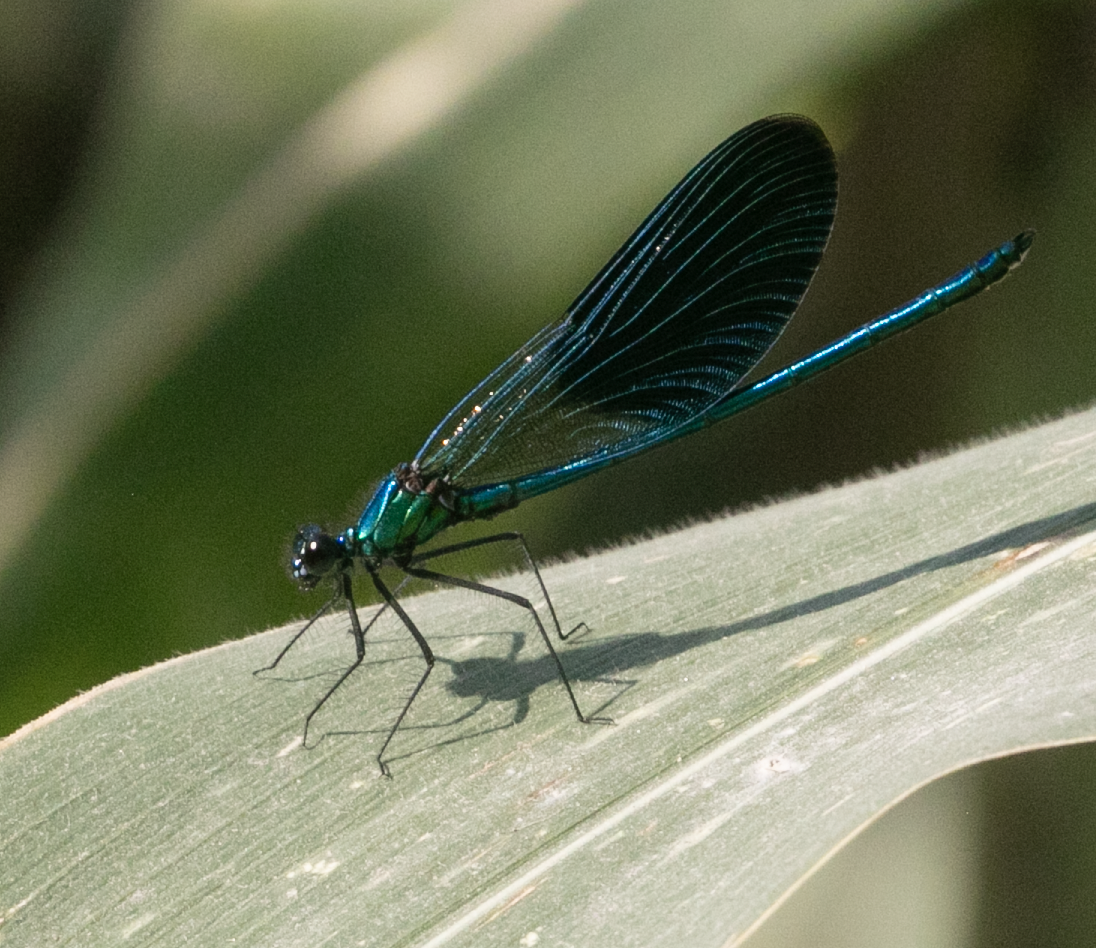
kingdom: Animalia
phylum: Arthropoda
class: Insecta
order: Odonata
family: Calopterygidae
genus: Calopteryx
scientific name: Calopteryx splendens
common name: Banded demoiselle
